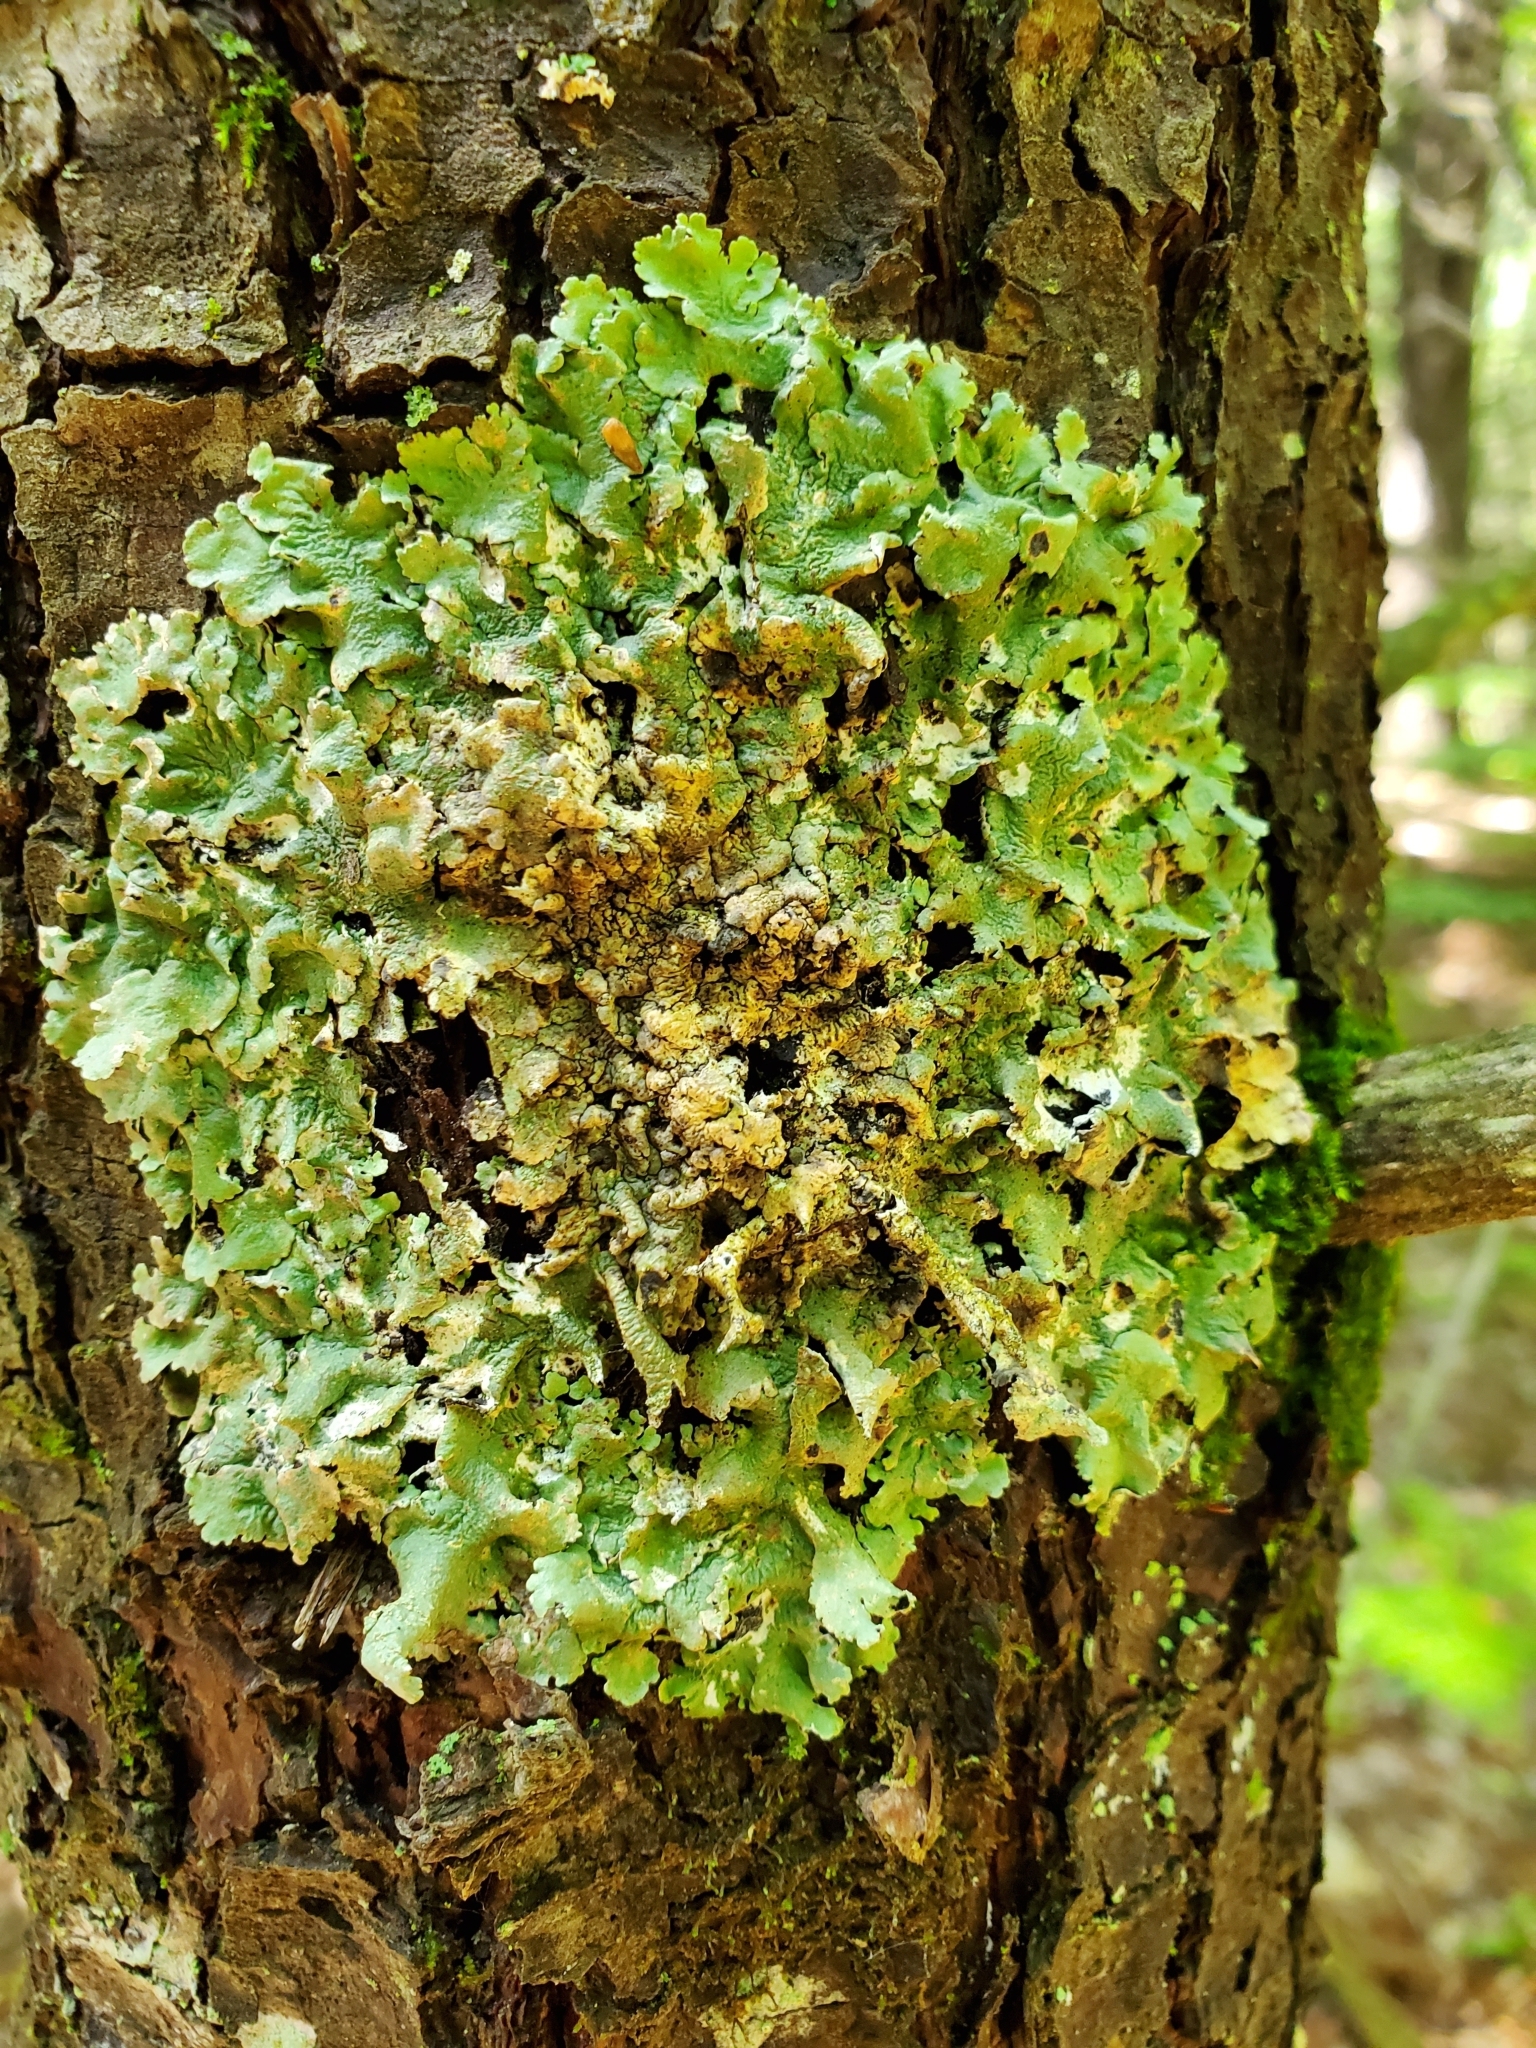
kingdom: Fungi
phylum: Ascomycota
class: Lecanoromycetes
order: Lecanorales
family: Parmeliaceae
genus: Flavoparmelia
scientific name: Flavoparmelia caperata
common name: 40-mile per hour lichen
